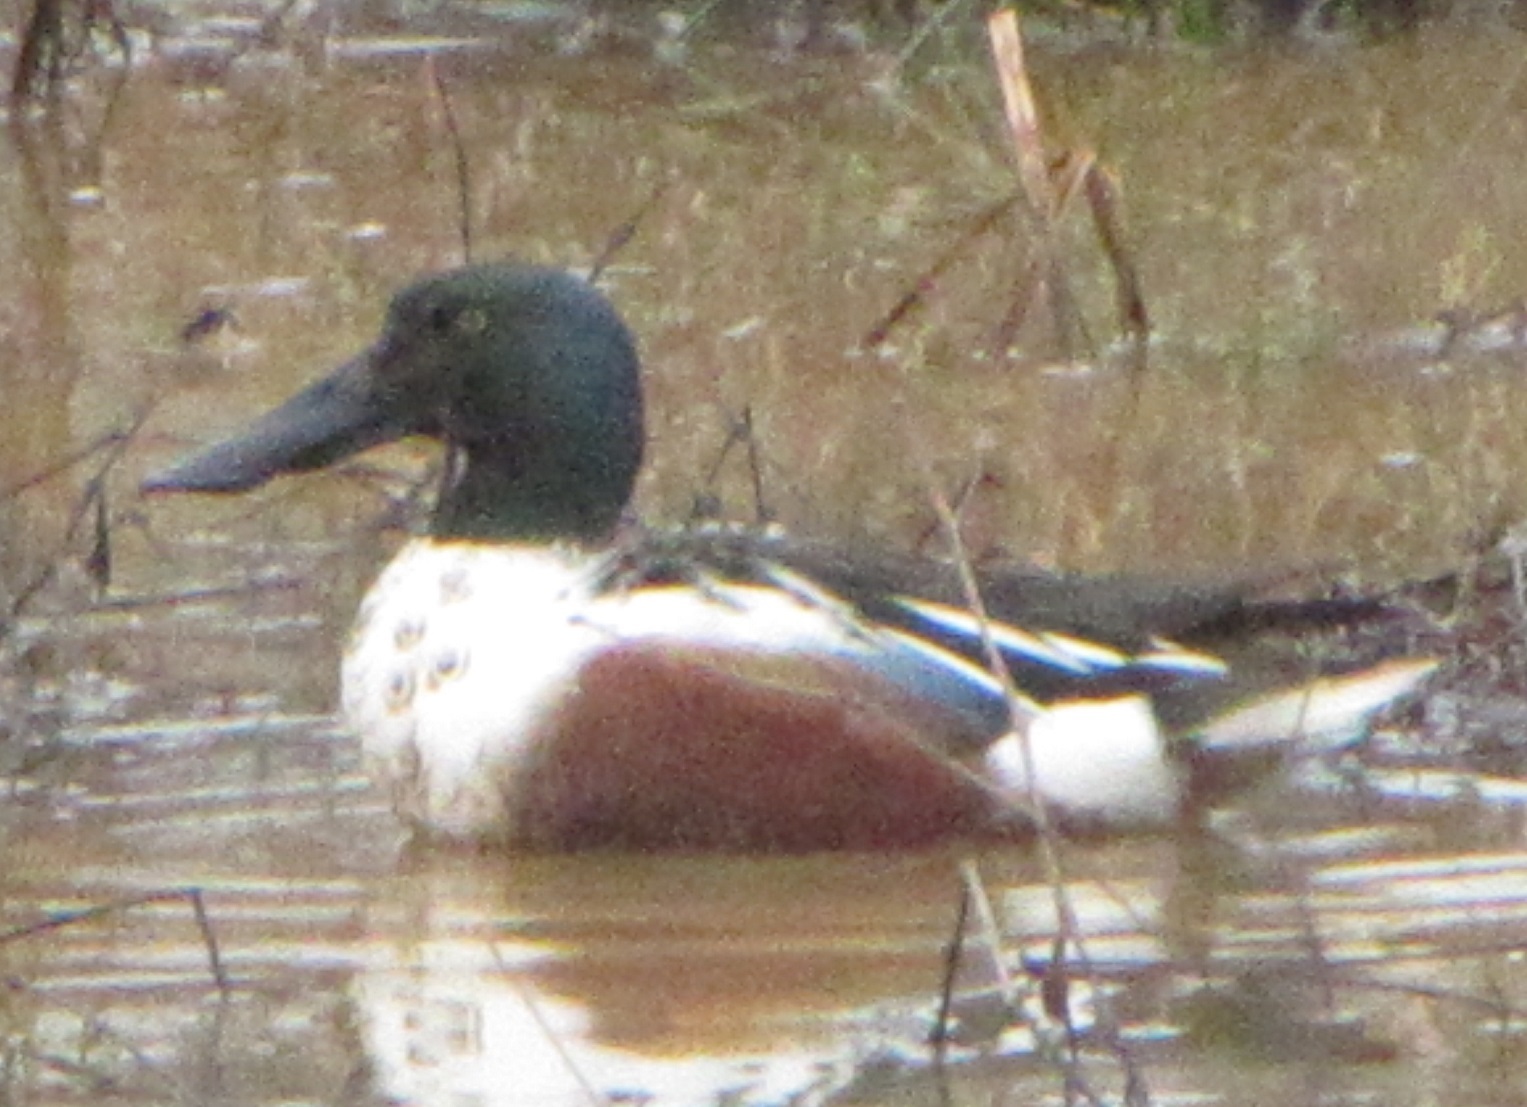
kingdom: Animalia
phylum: Chordata
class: Aves
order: Anseriformes
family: Anatidae
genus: Spatula
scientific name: Spatula clypeata
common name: Northern shoveler
